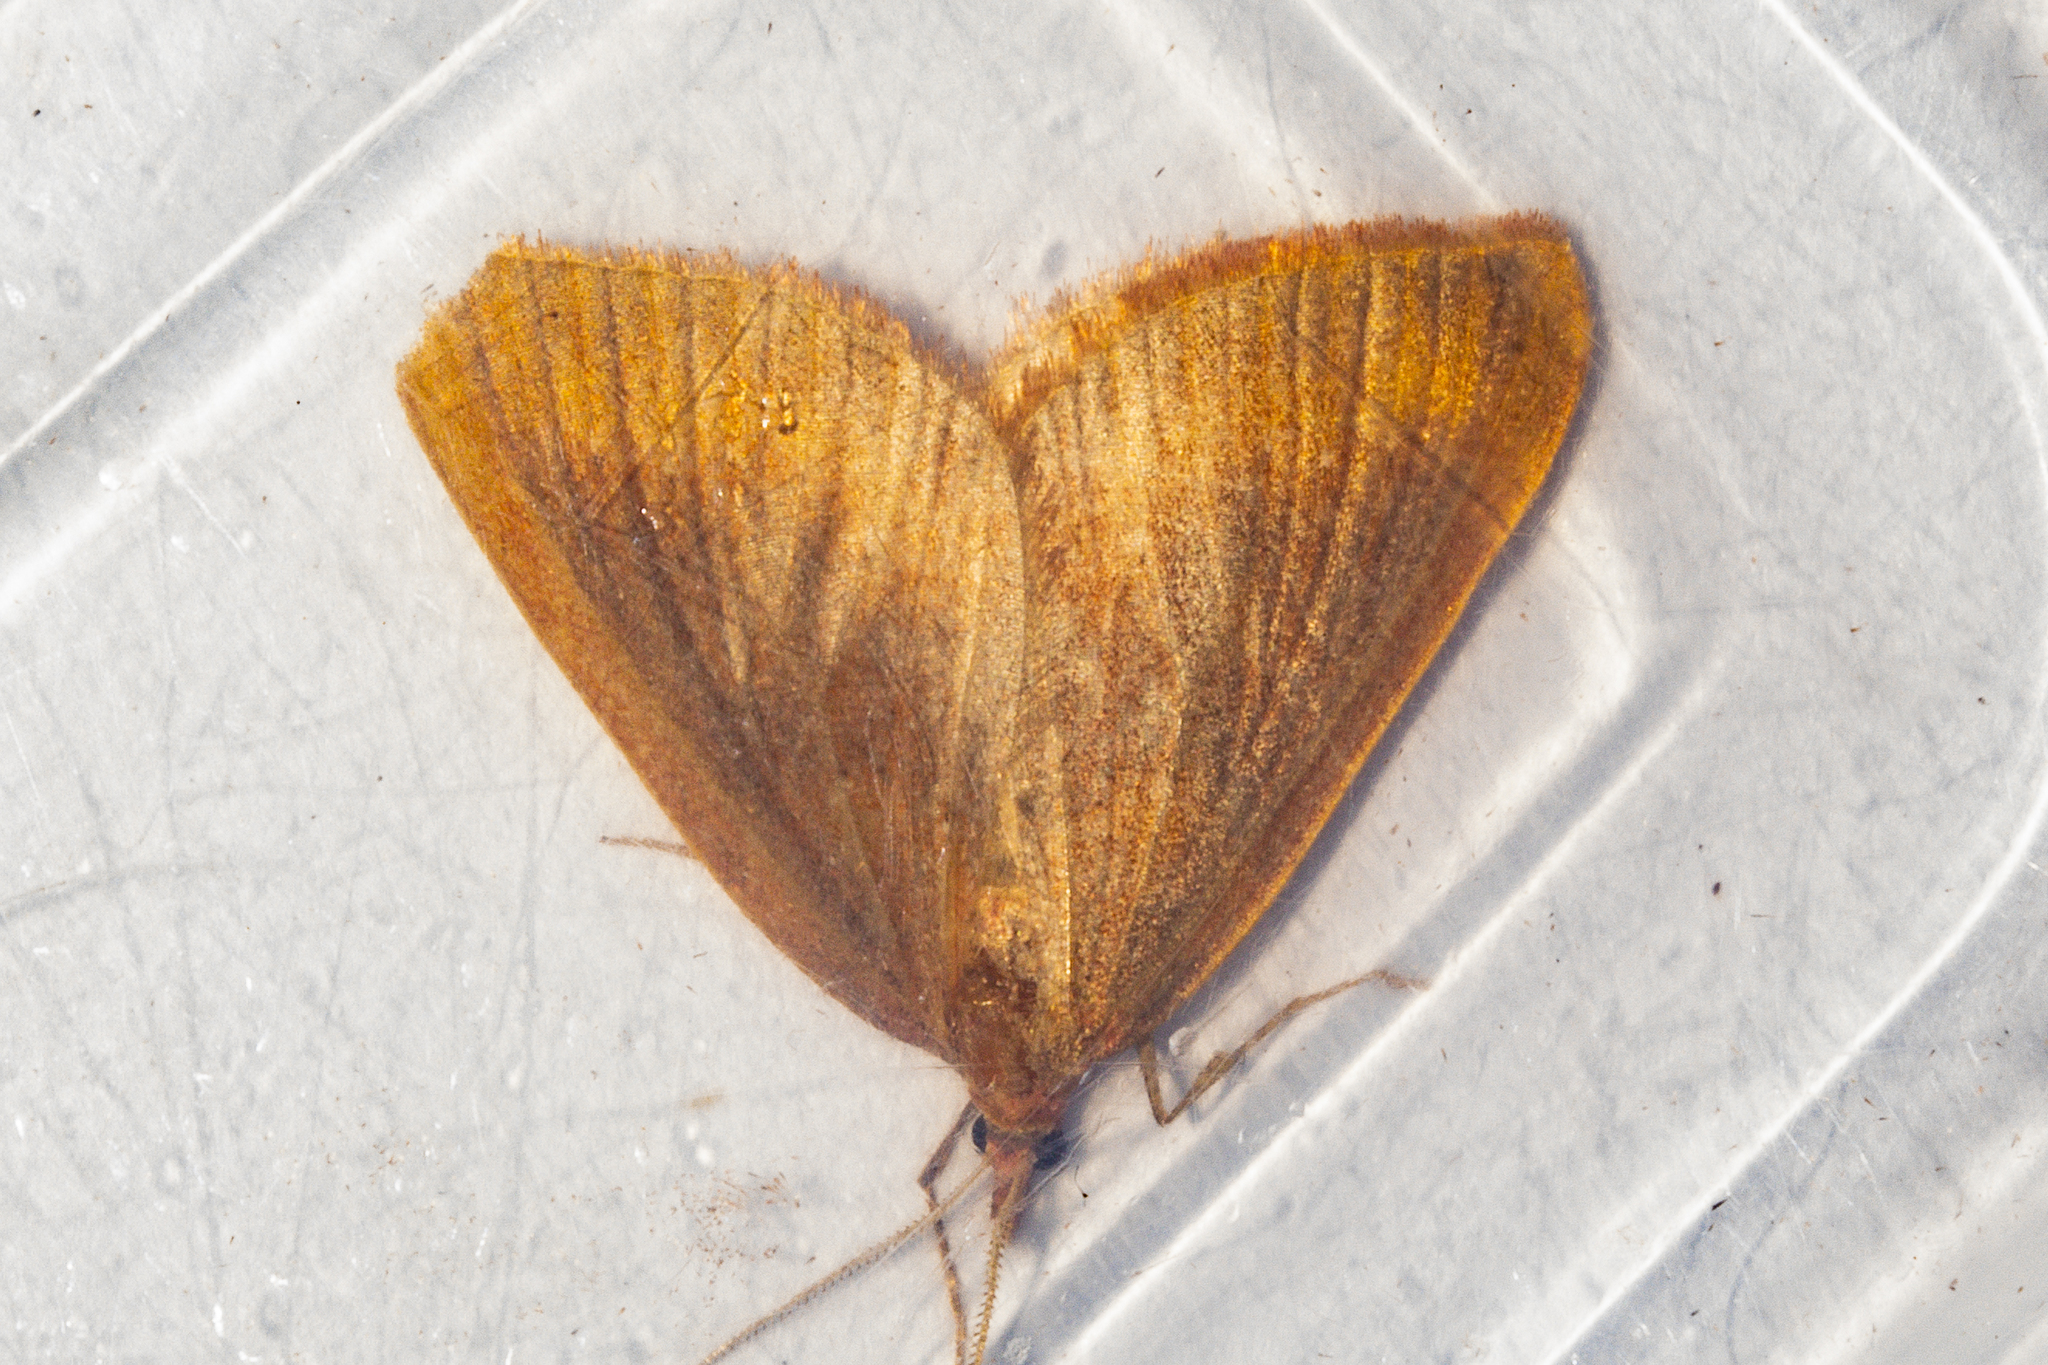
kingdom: Animalia
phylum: Arthropoda
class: Insecta
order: Lepidoptera
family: Geometridae
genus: Xanthorhoe
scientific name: Xanthorhoe occulta
